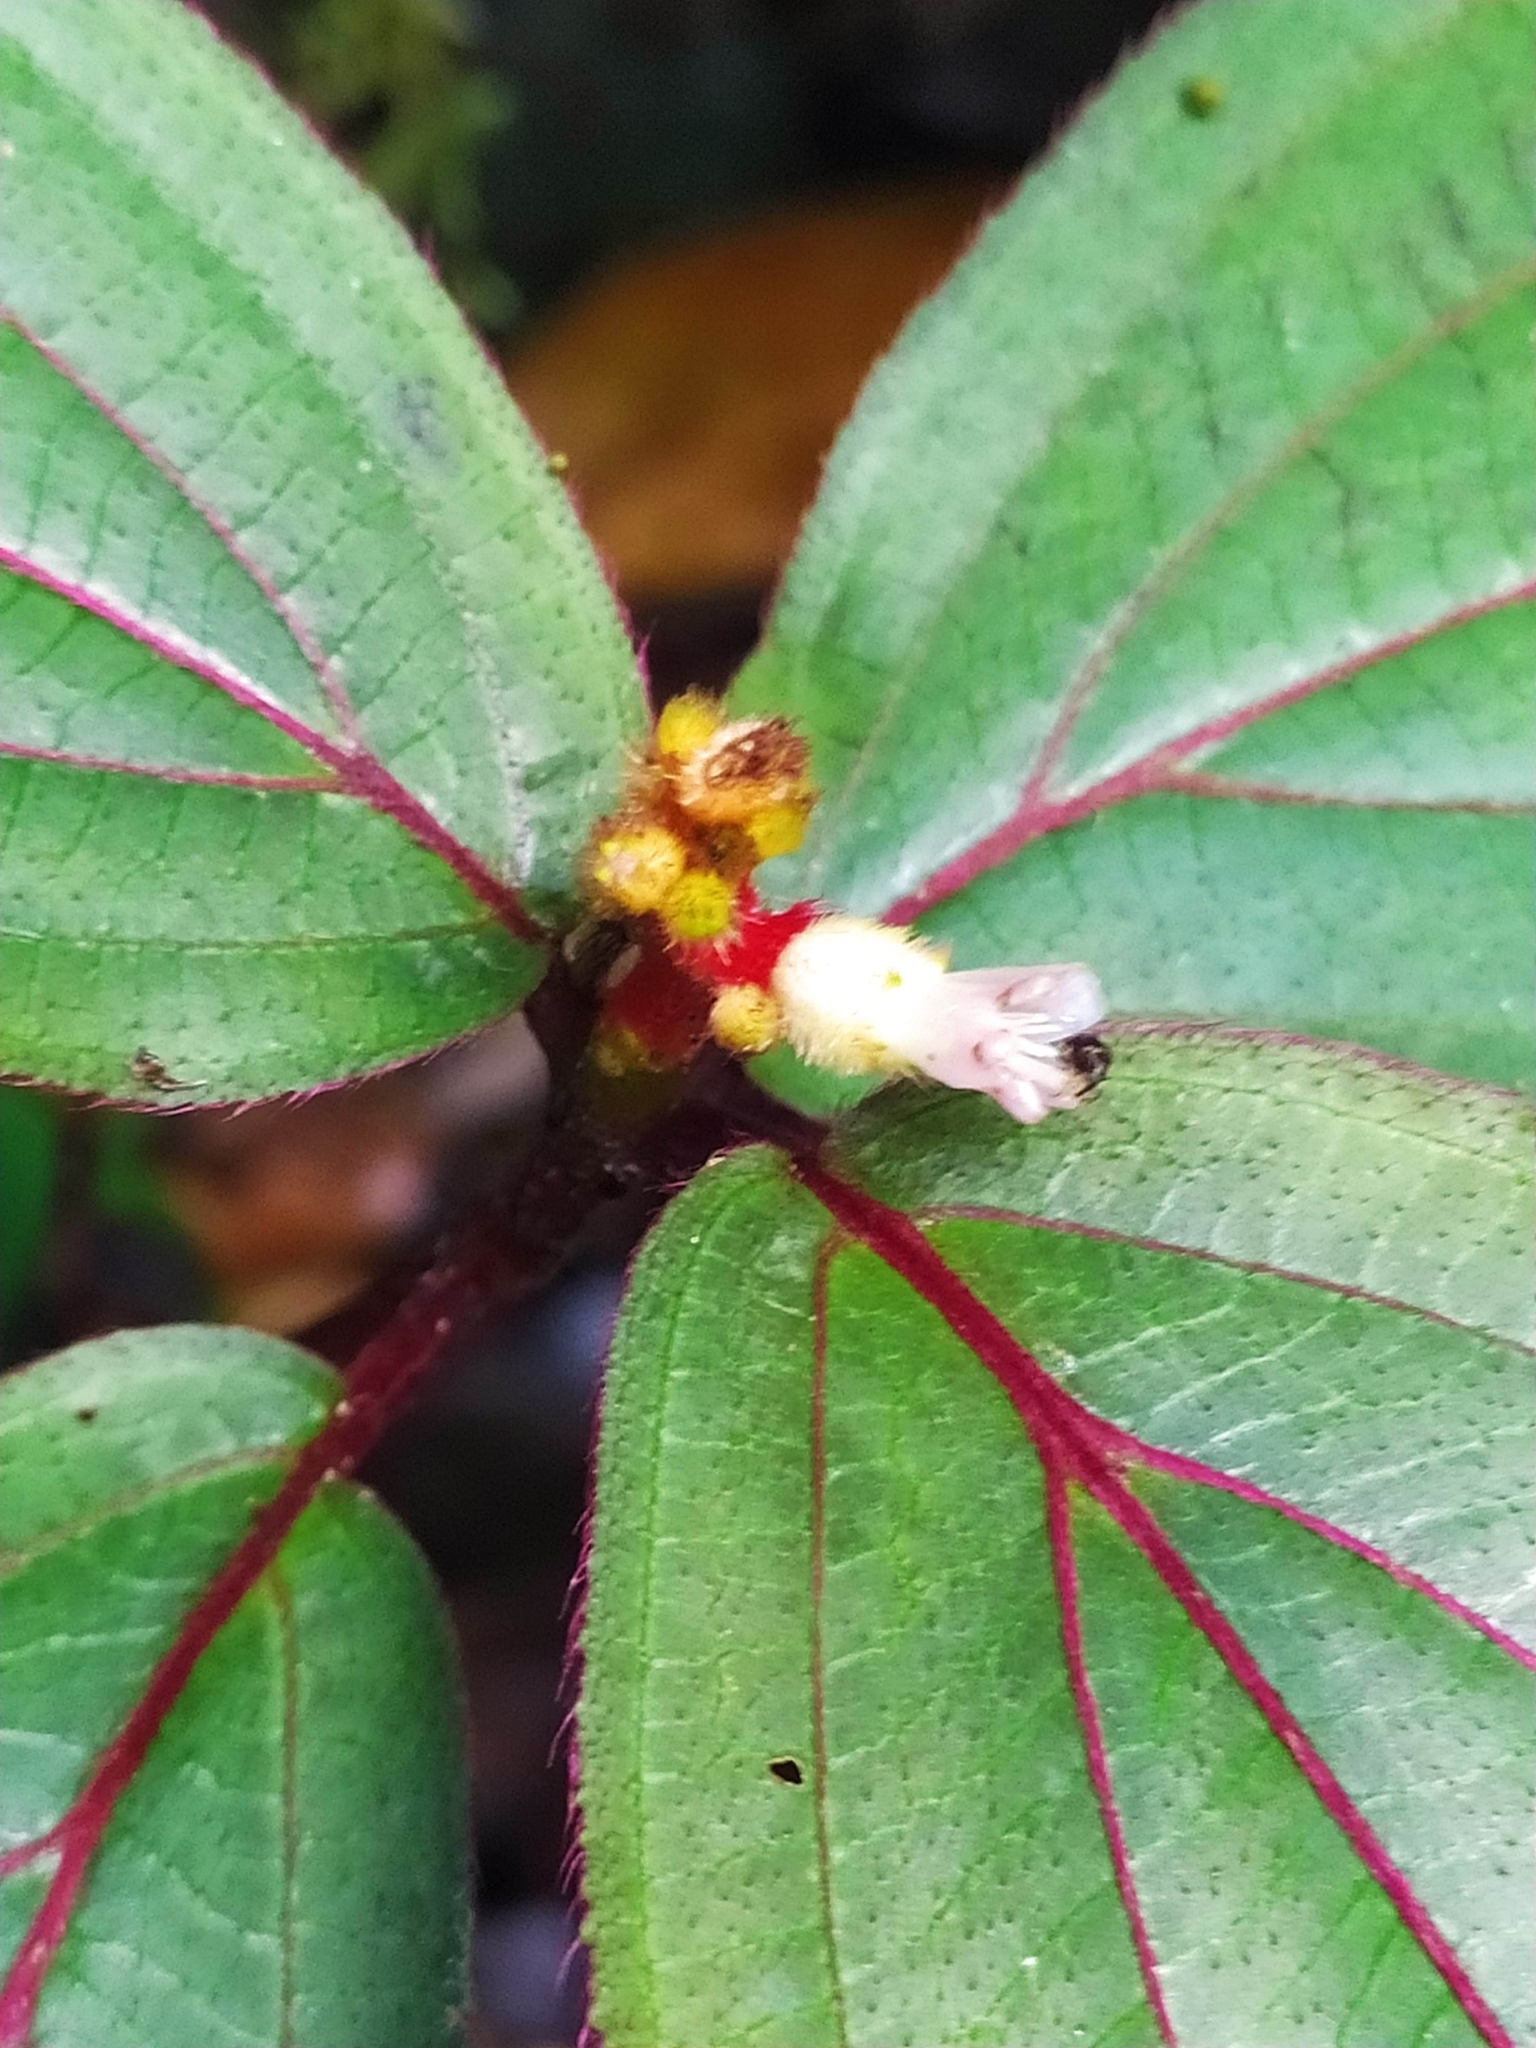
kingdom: Plantae
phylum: Tracheophyta
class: Magnoliopsida
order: Myrtales
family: Melastomataceae
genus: Miconia
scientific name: Miconia ceramicarpa
